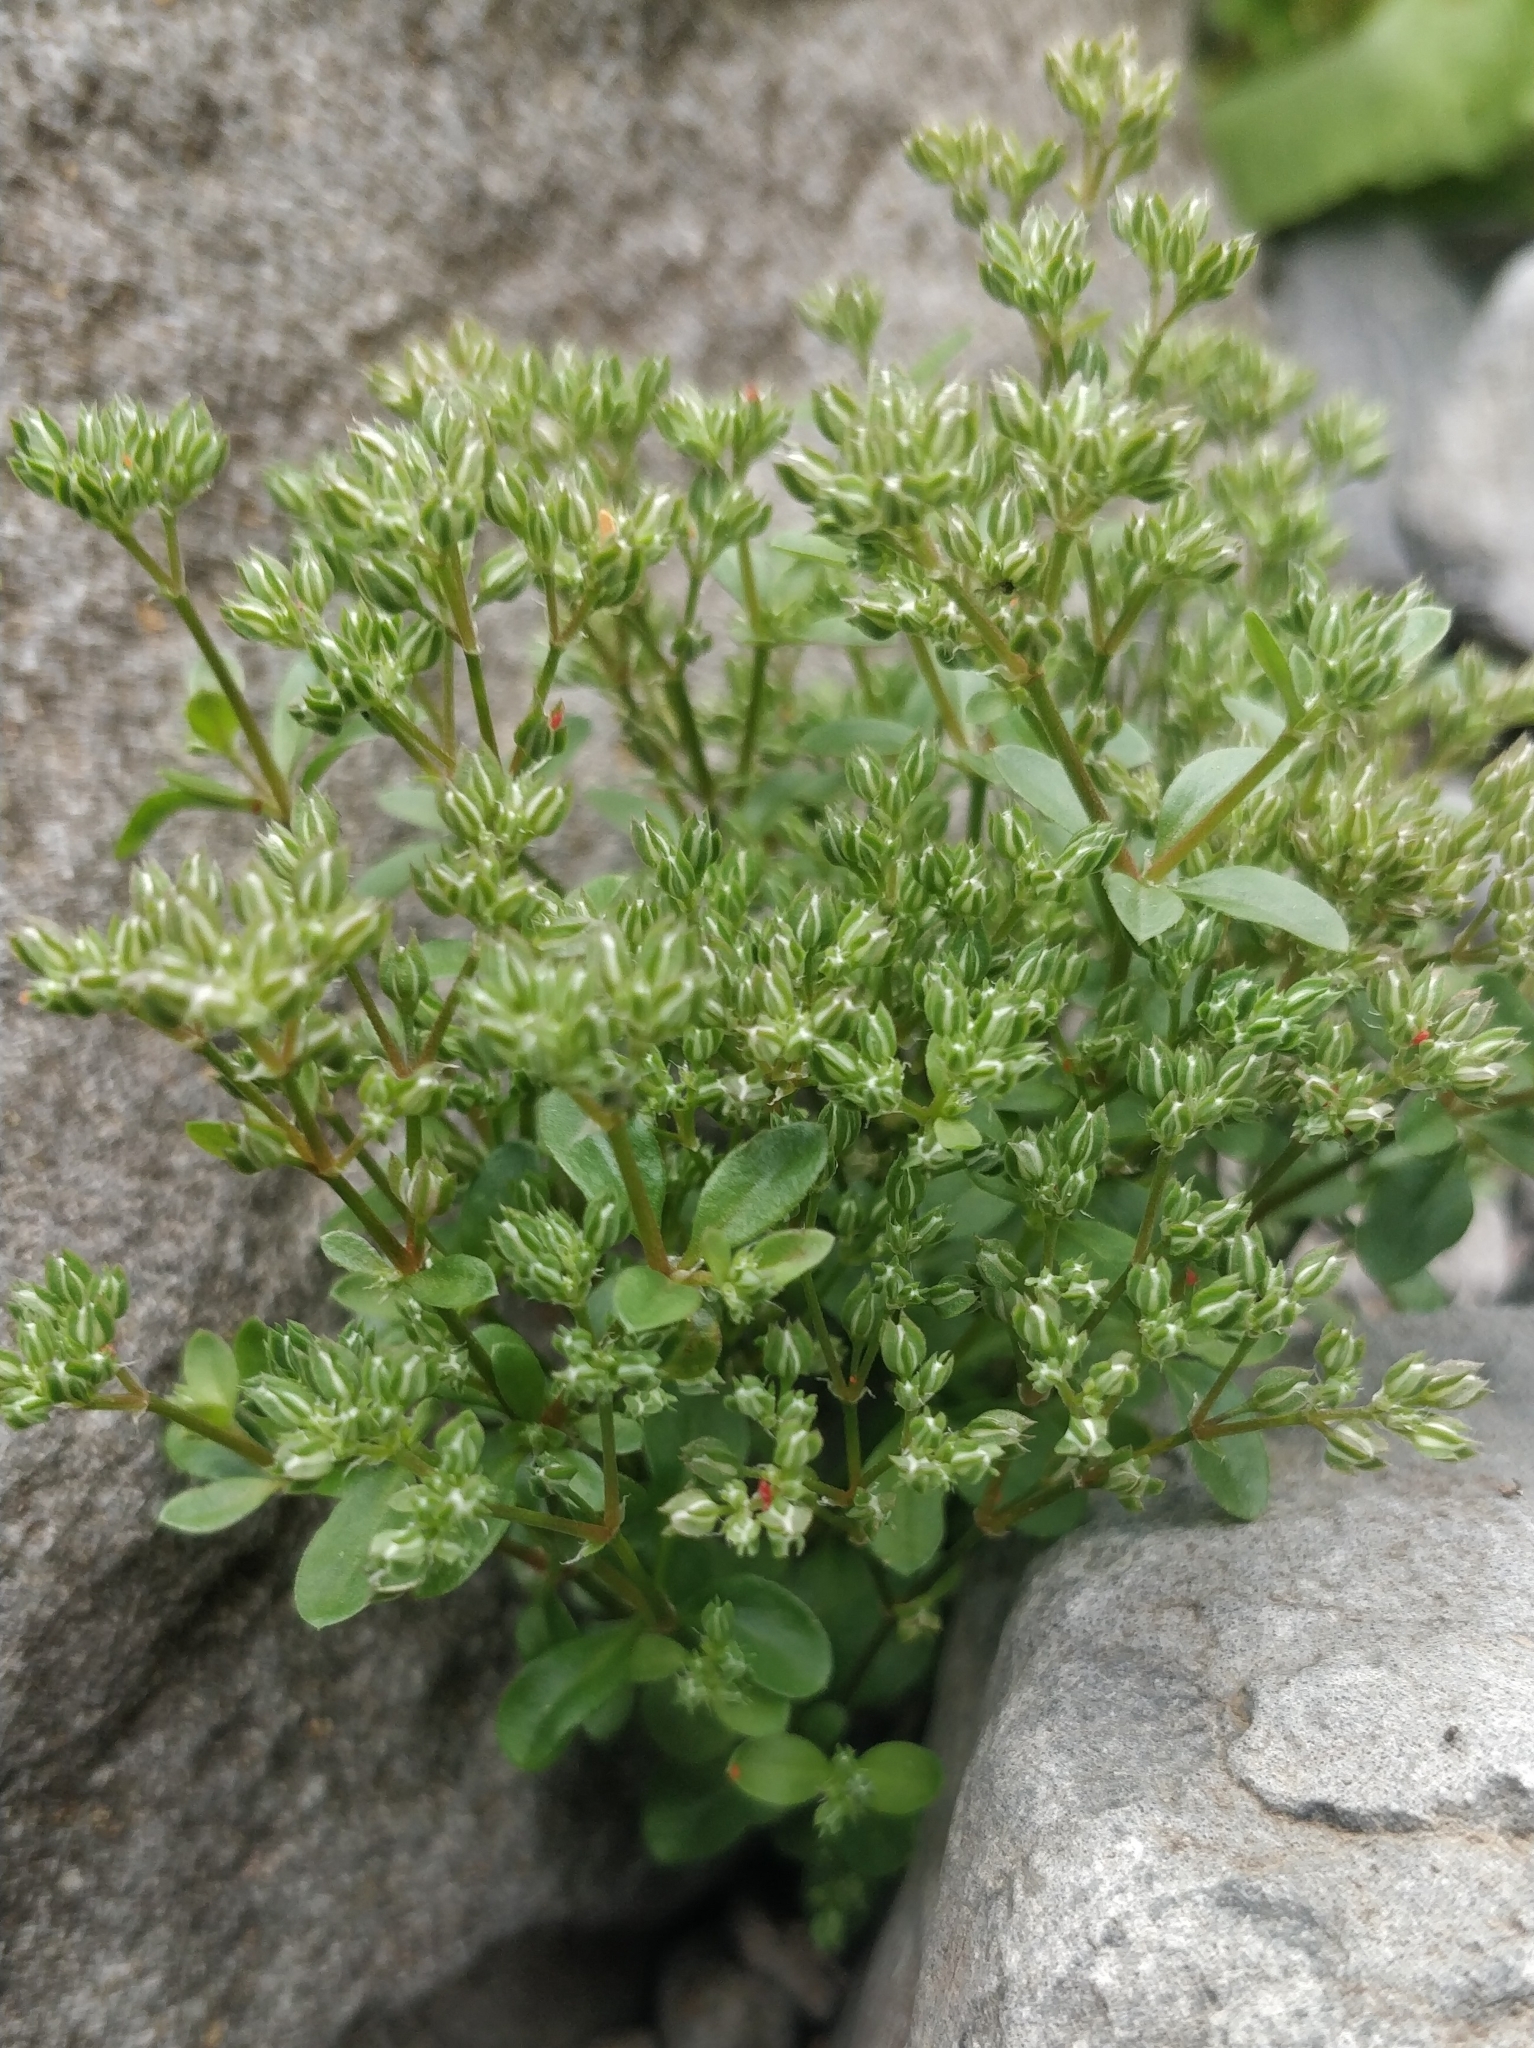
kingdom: Plantae
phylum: Tracheophyta
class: Magnoliopsida
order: Caryophyllales
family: Caryophyllaceae
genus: Polycarpon
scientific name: Polycarpon tetraphyllum
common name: Four-leaved all-seed
